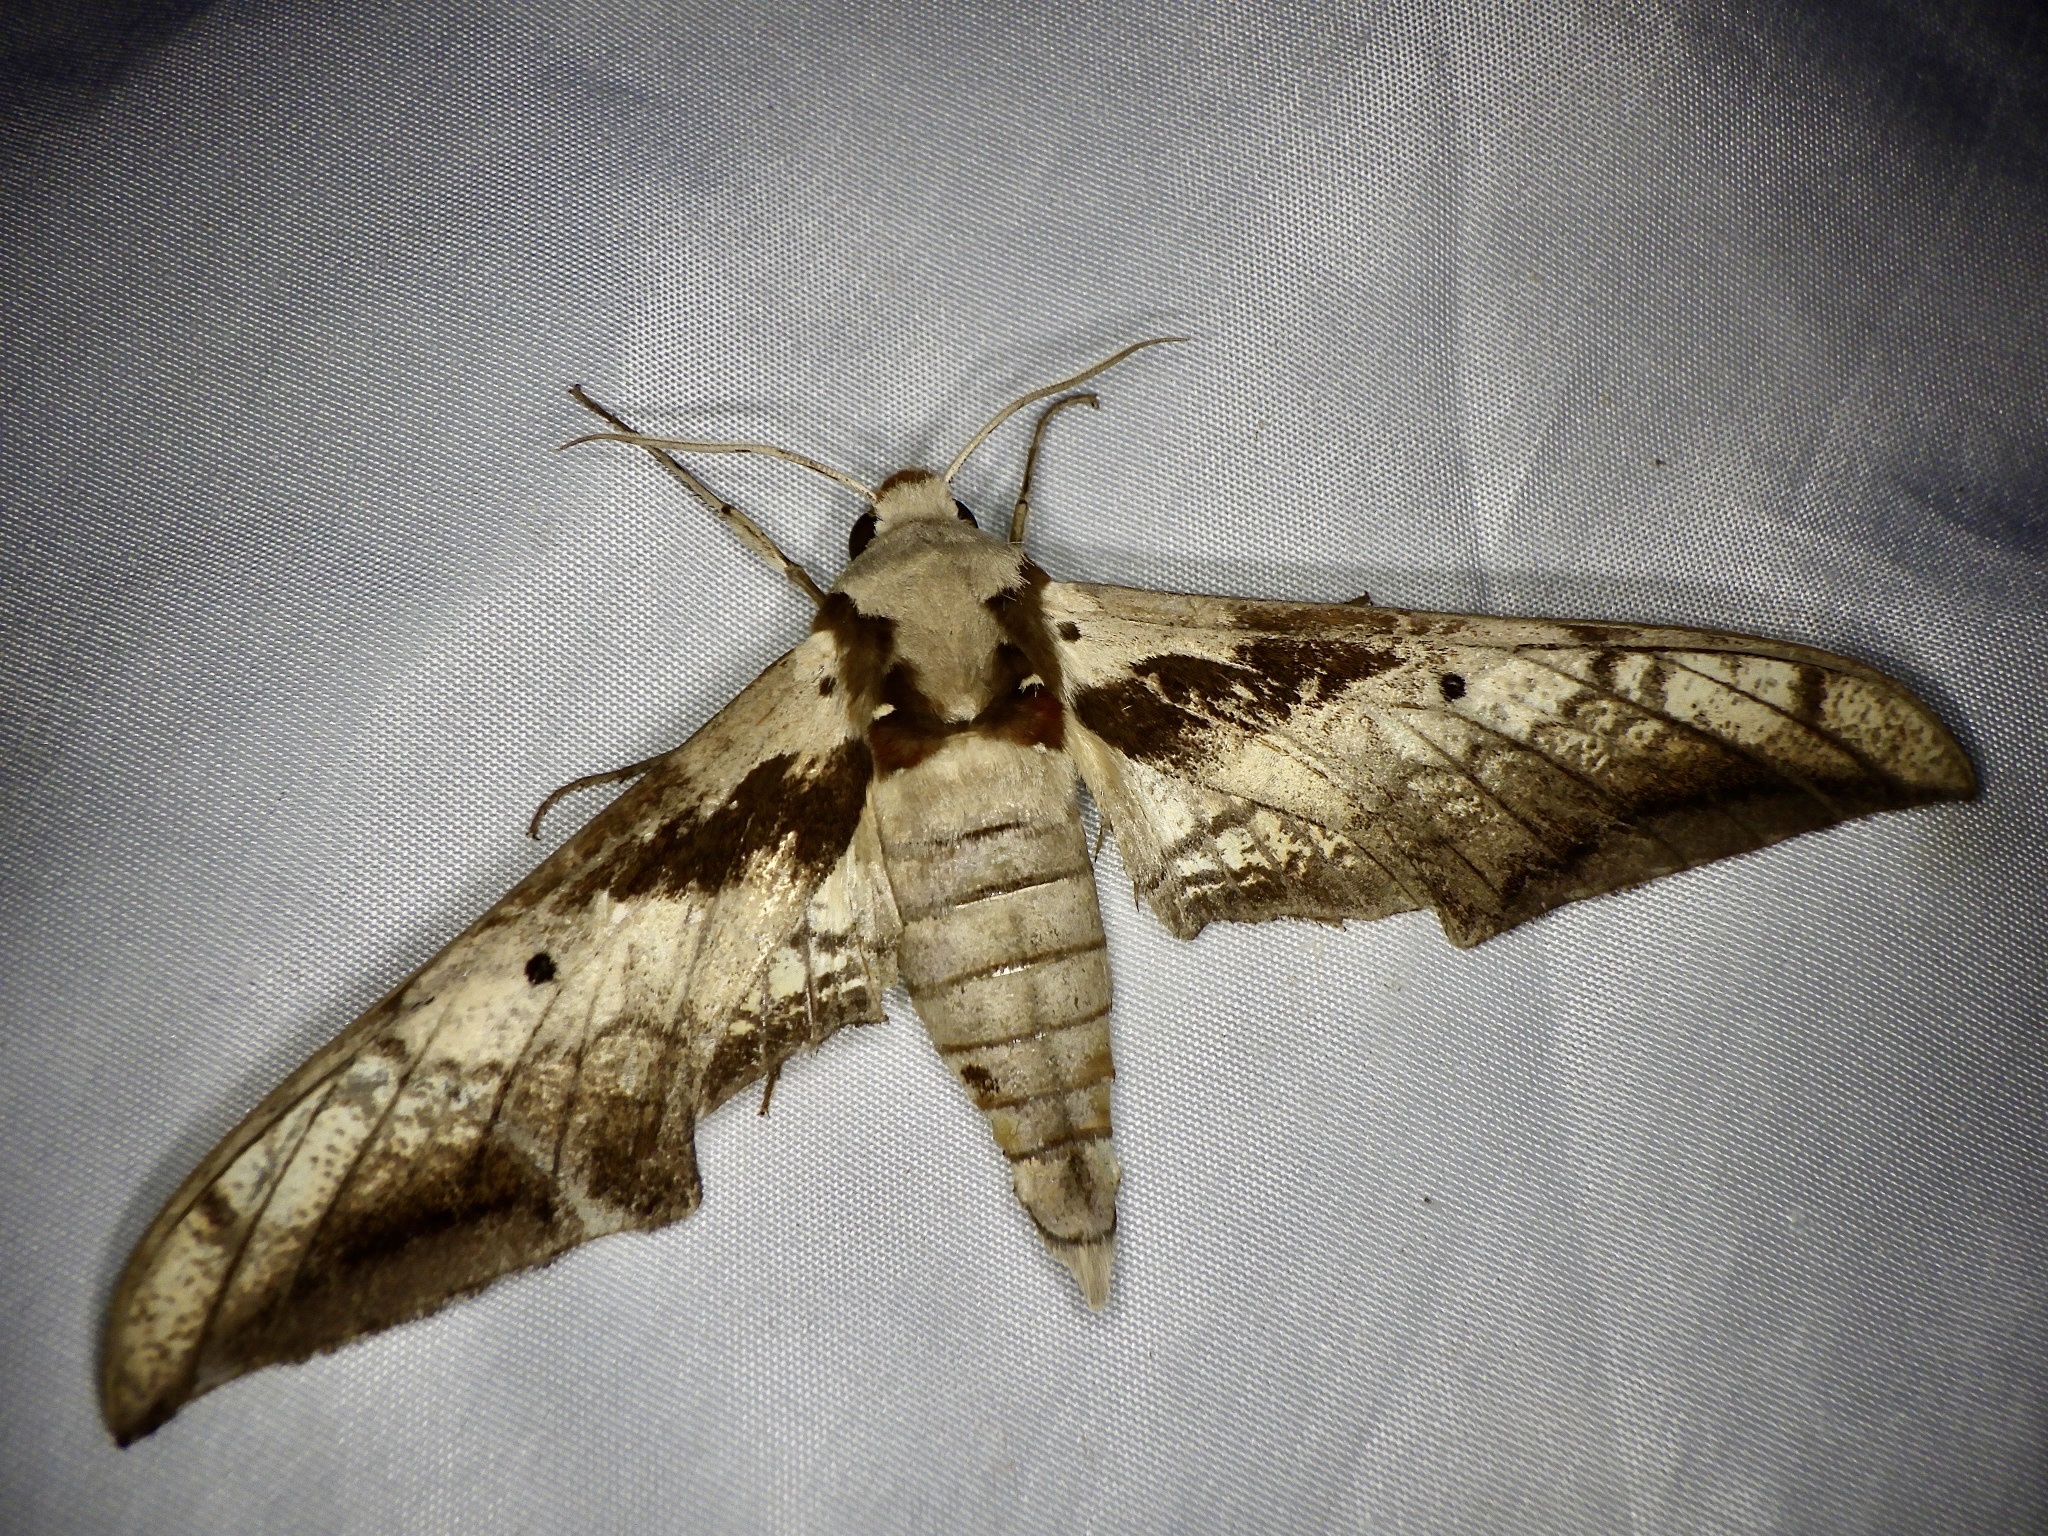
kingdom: Animalia
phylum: Arthropoda
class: Insecta
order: Lepidoptera
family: Sphingidae
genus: Ambulyx
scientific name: Ambulyx japonica
